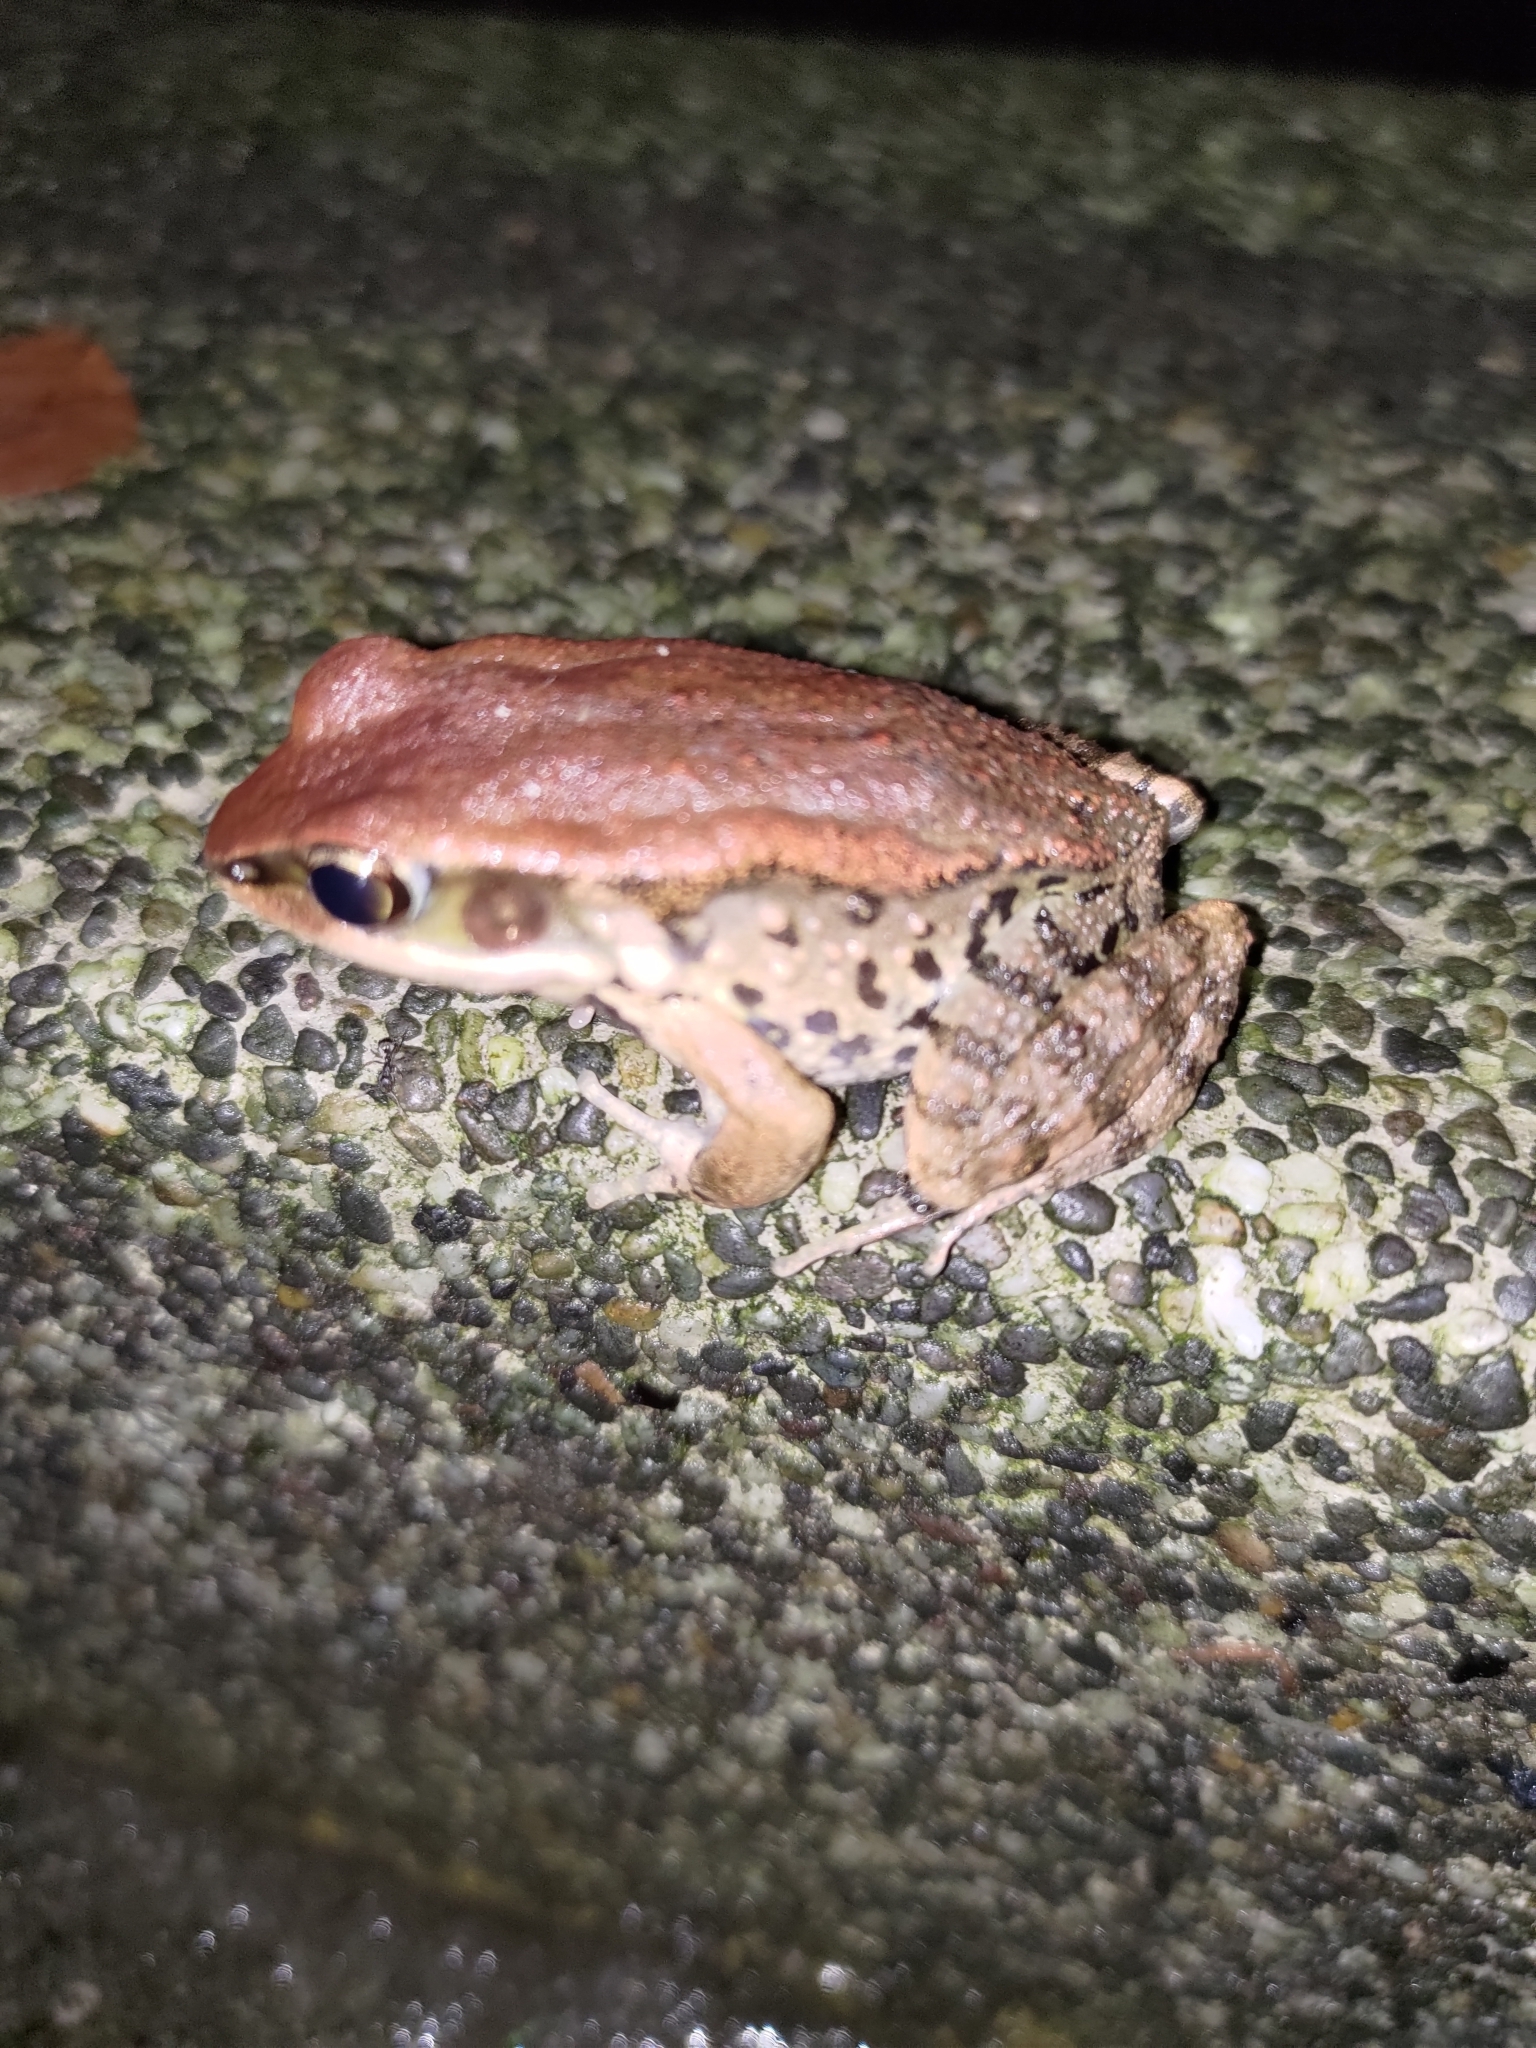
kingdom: Animalia
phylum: Chordata
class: Amphibia
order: Anura
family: Ranidae
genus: Hylarana
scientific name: Hylarana latouchii
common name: Broad-folded frog
